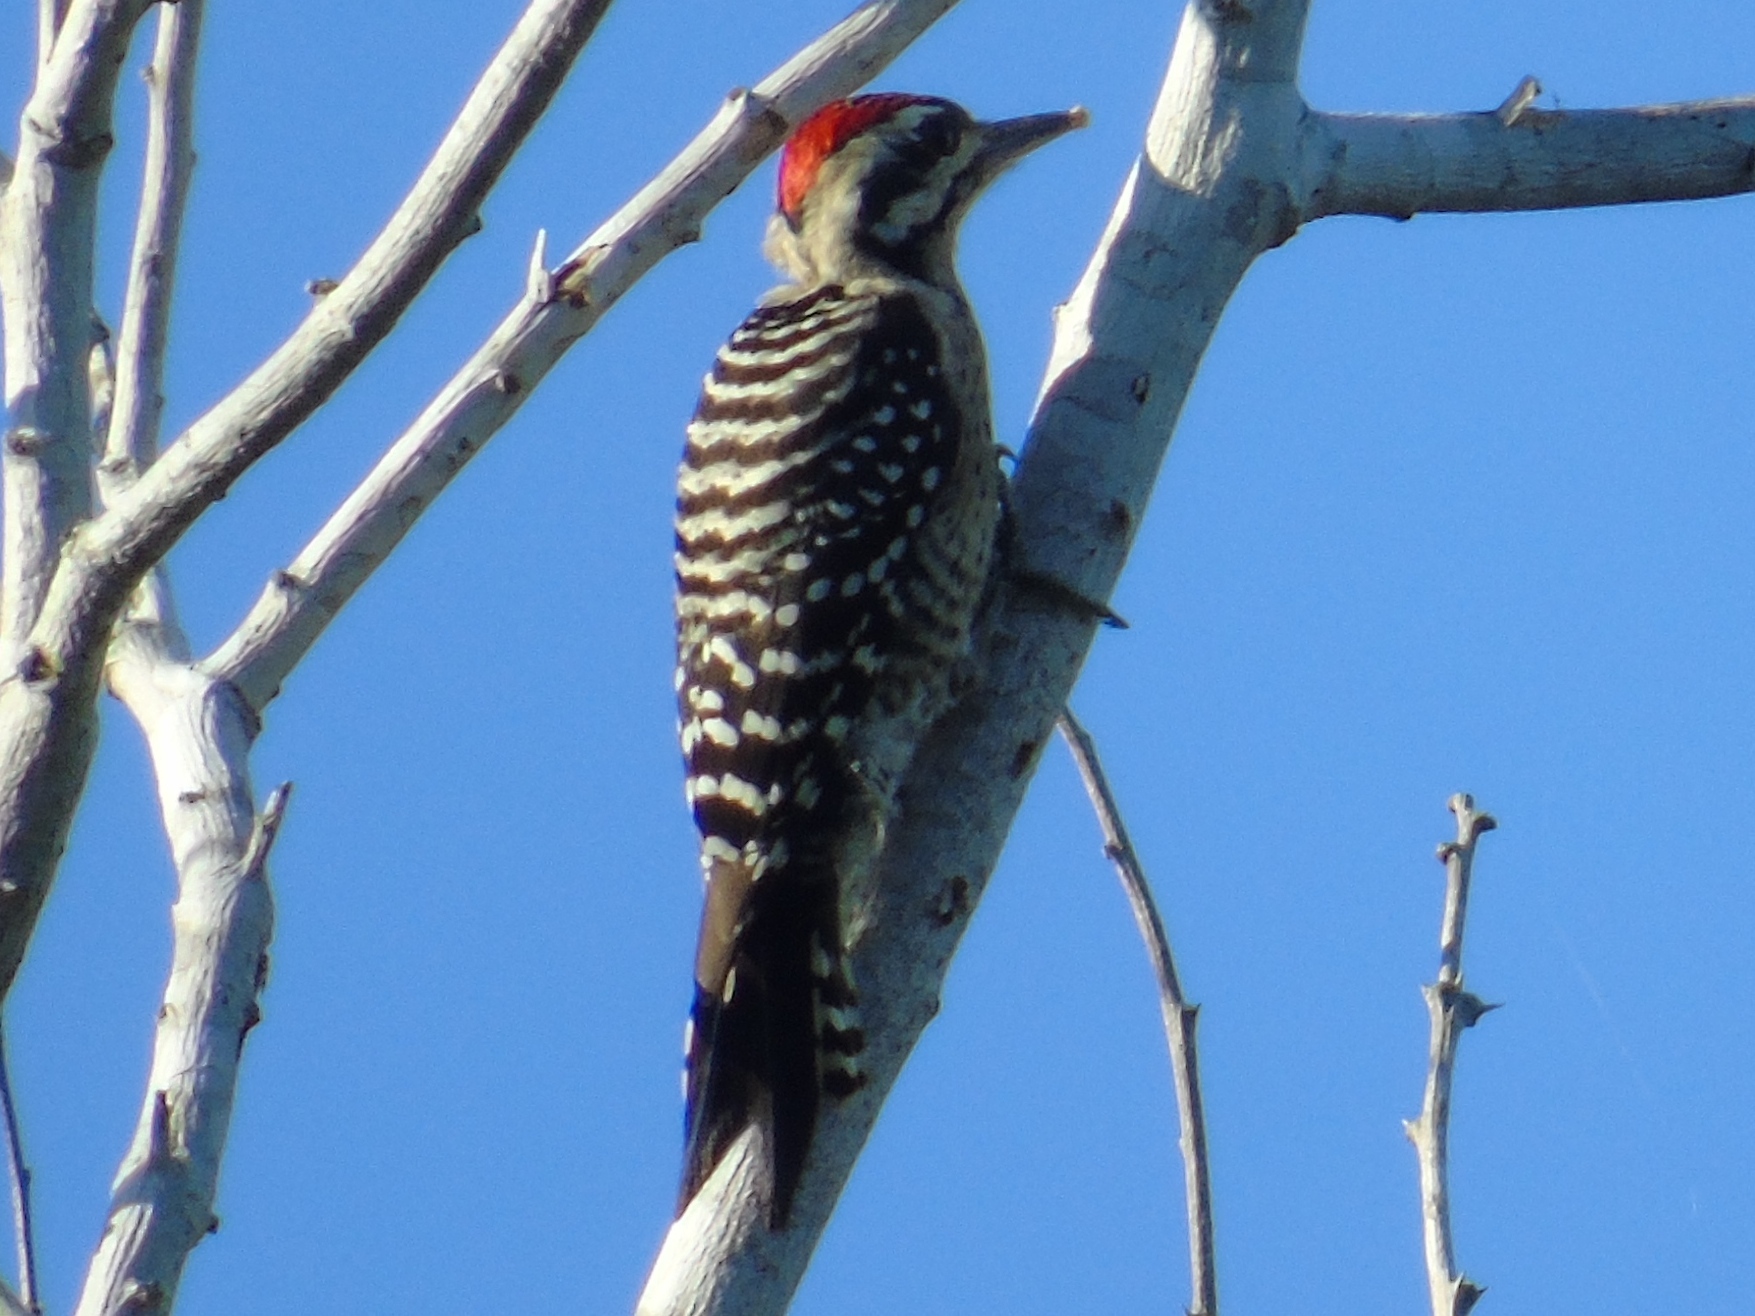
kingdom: Animalia
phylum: Chordata
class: Aves
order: Piciformes
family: Picidae
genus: Dryobates
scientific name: Dryobates scalaris
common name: Ladder-backed woodpecker
